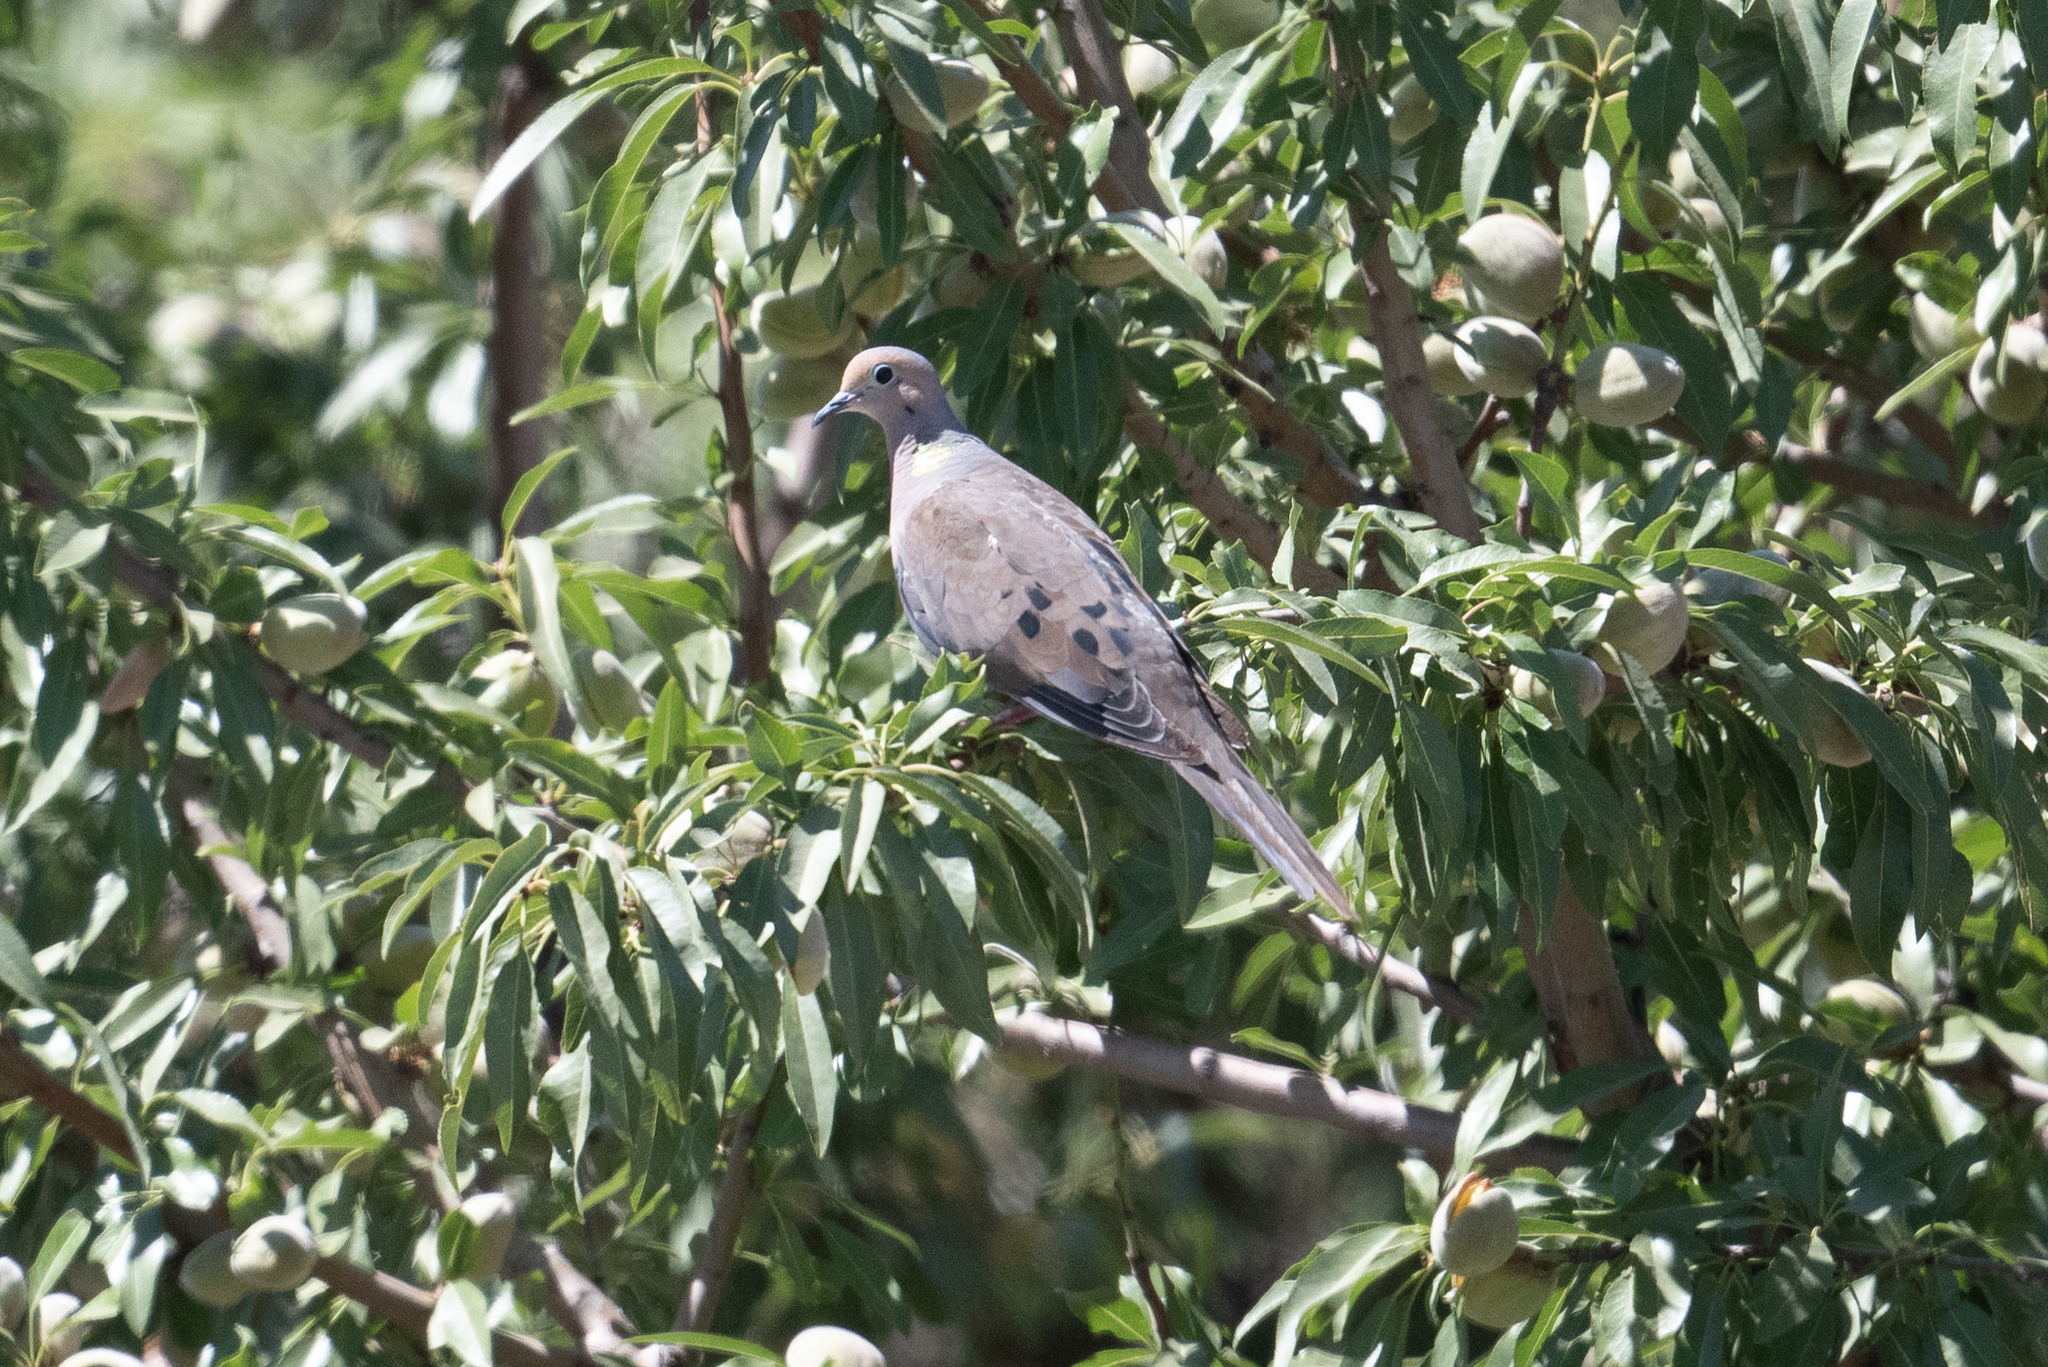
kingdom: Animalia
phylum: Chordata
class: Aves
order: Columbiformes
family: Columbidae
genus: Zenaida
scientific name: Zenaida macroura
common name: Mourning dove
